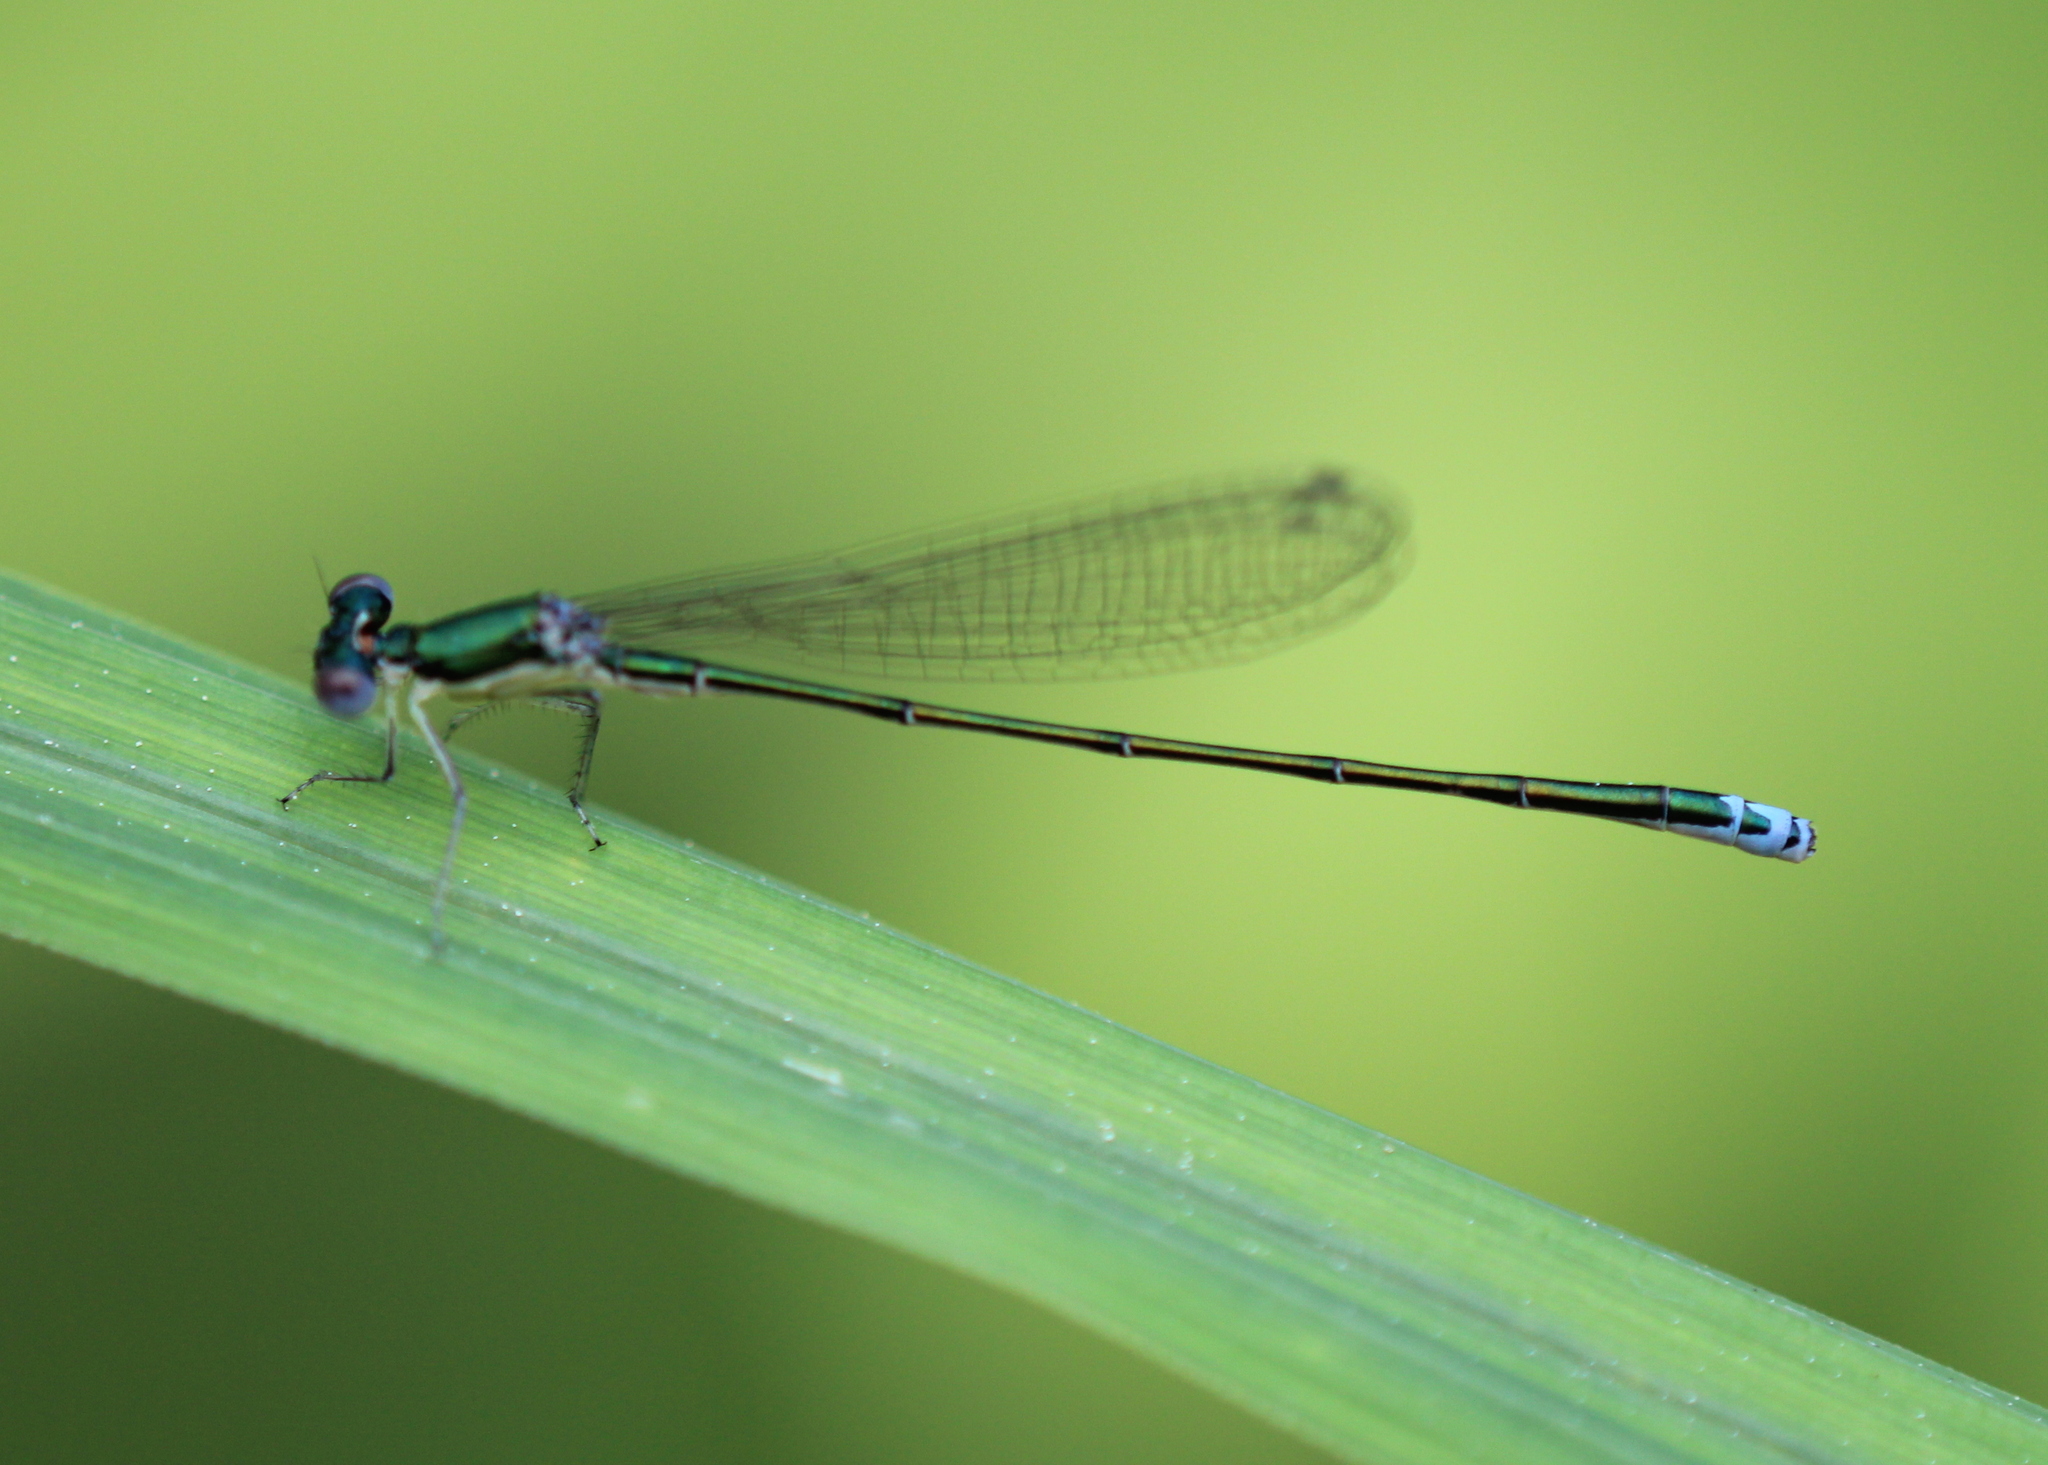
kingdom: Animalia
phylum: Arthropoda
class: Insecta
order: Odonata
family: Coenagrionidae
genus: Nehalennia
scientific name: Nehalennia irene
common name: Sedge sprite
